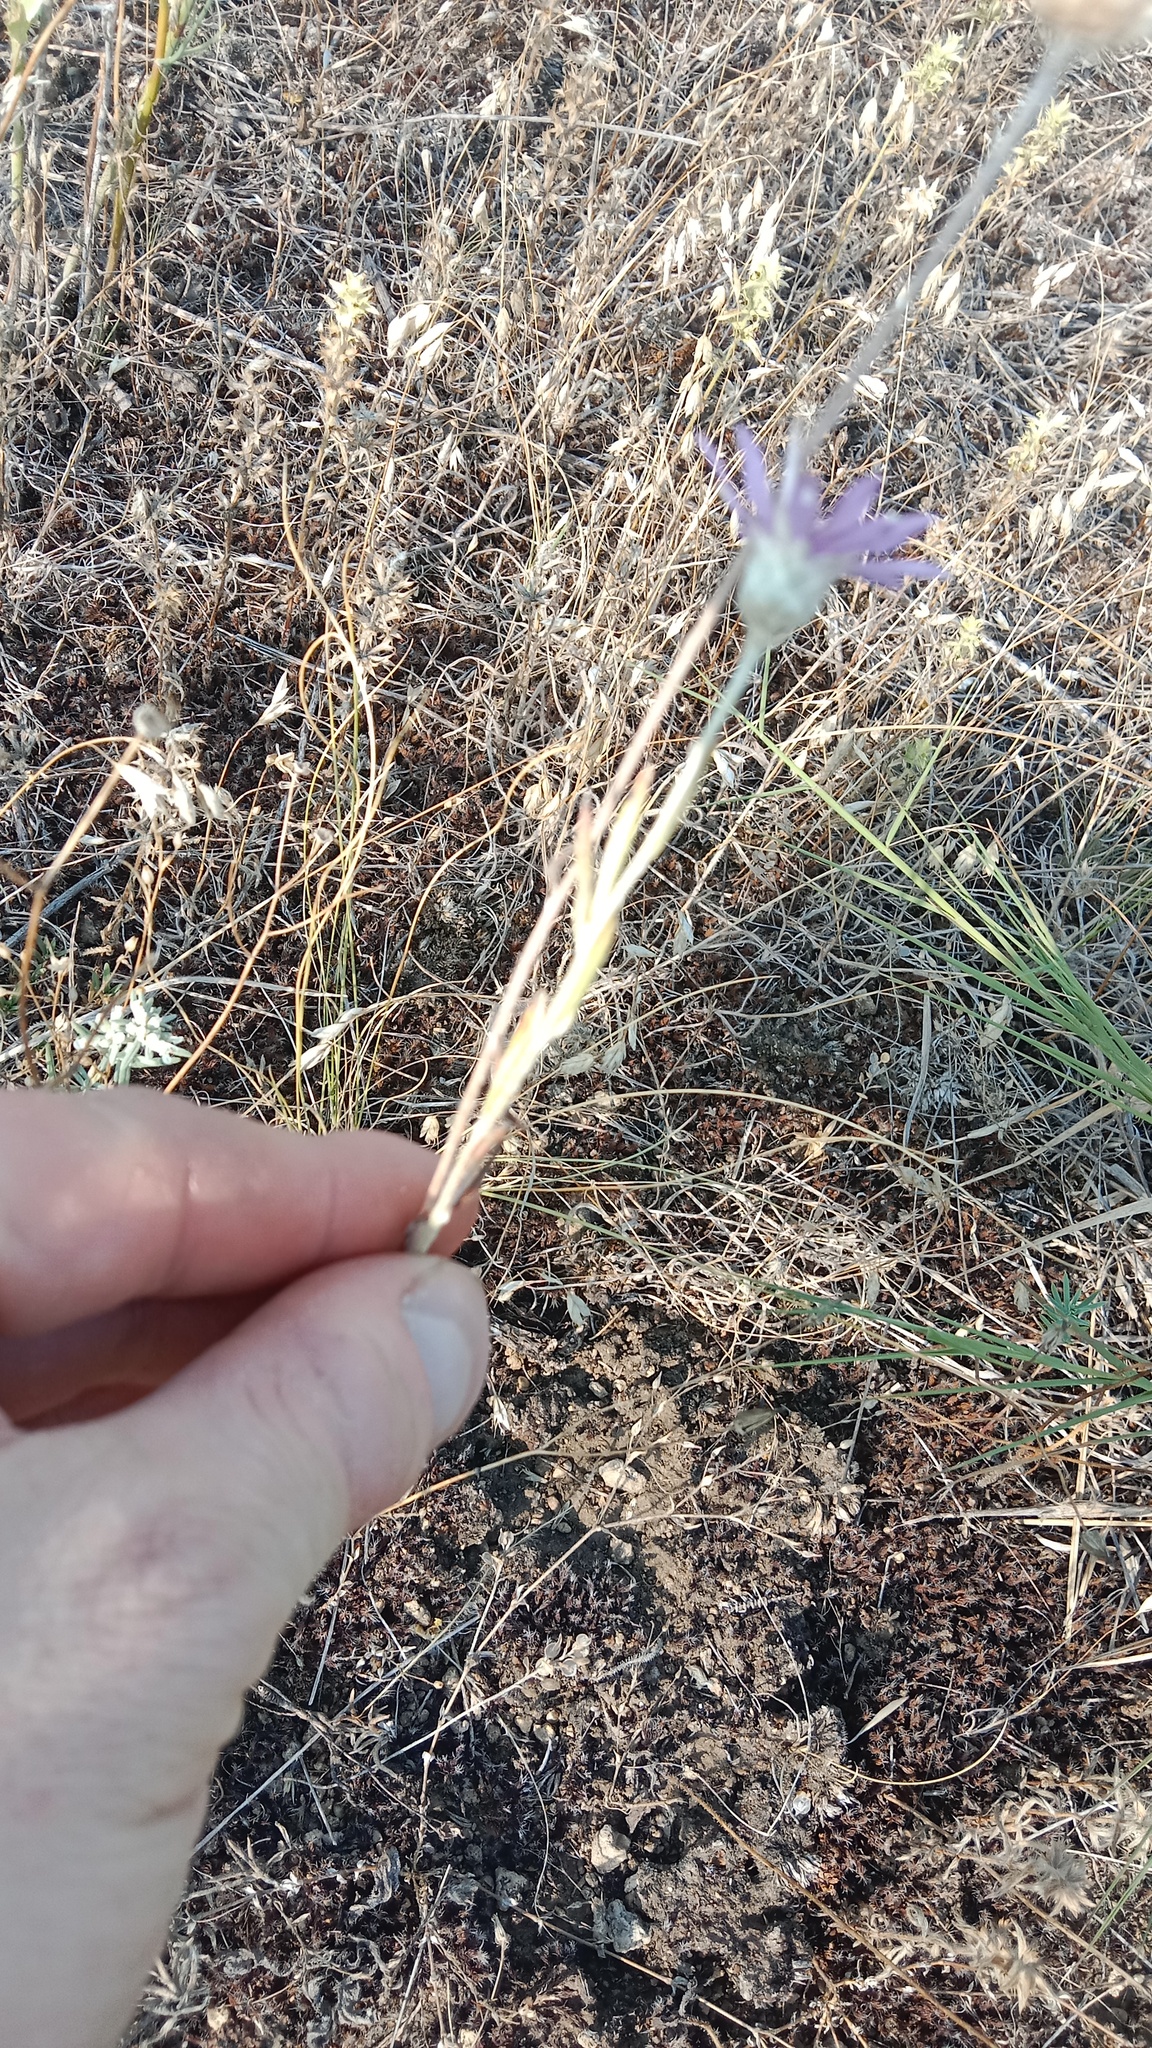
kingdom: Plantae
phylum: Tracheophyta
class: Magnoliopsida
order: Asterales
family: Asteraceae
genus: Xeranthemum
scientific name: Xeranthemum annuum
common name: Immortelle
